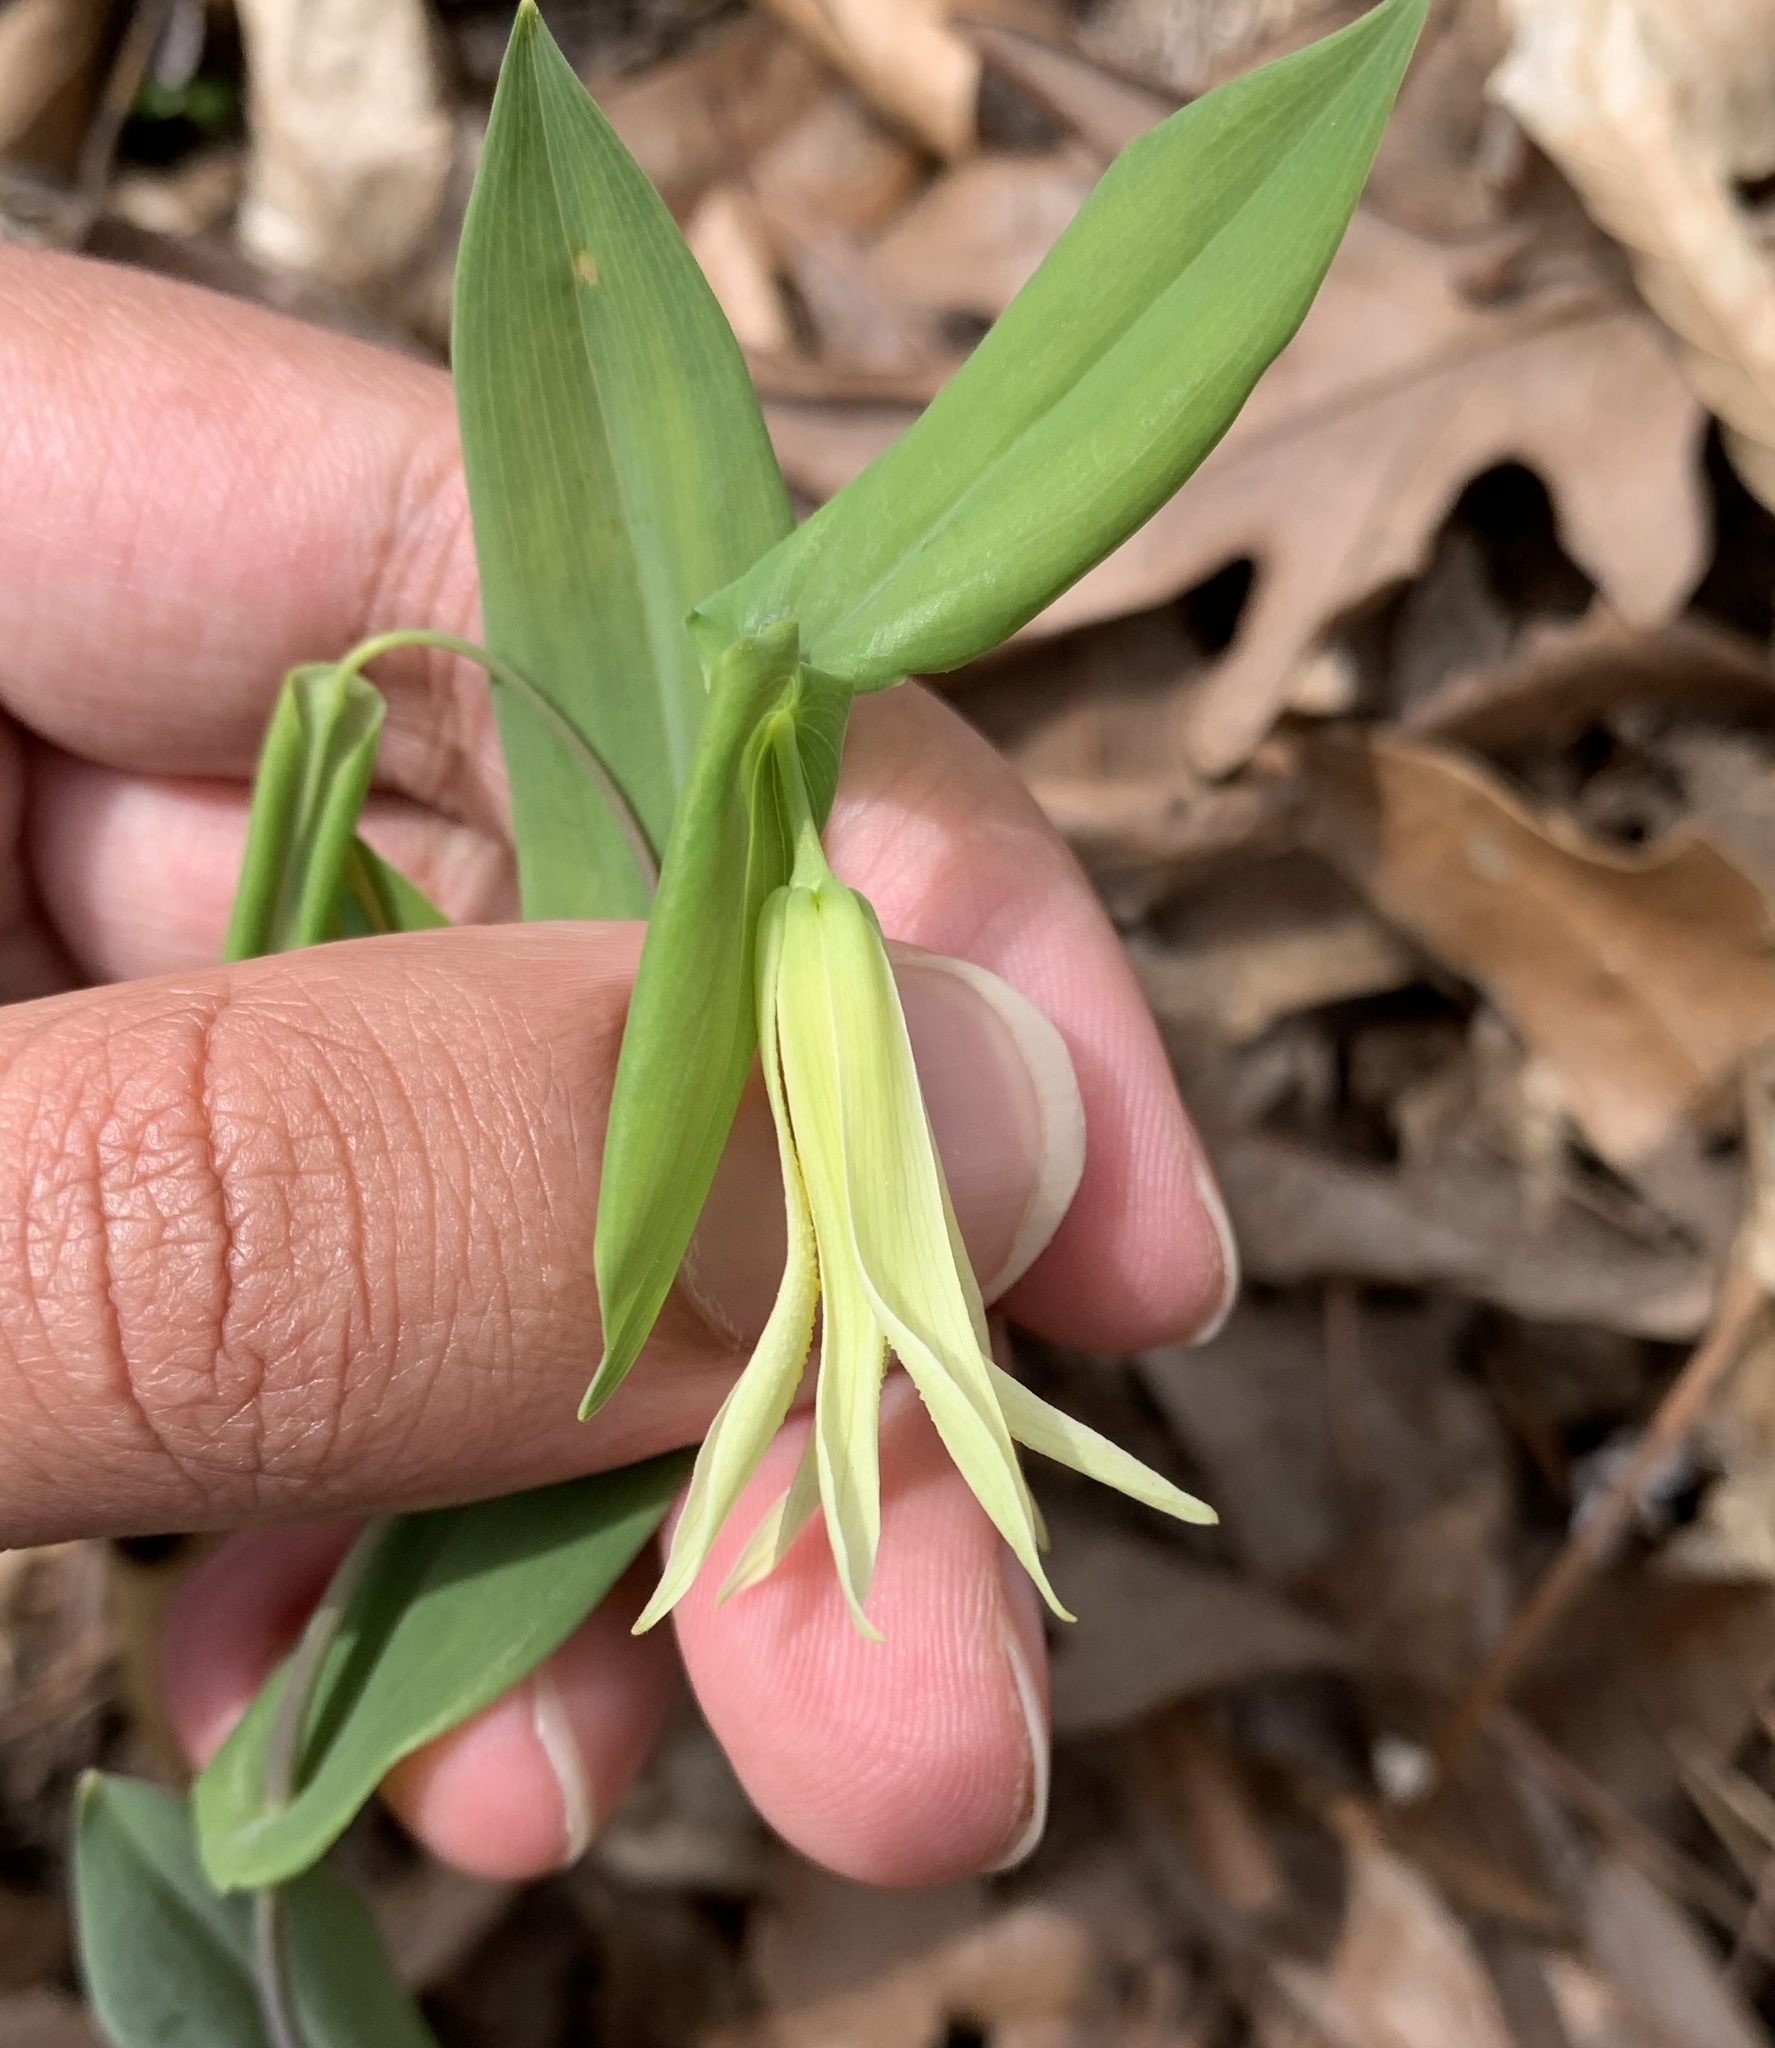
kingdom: Plantae
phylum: Tracheophyta
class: Liliopsida
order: Liliales
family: Colchicaceae
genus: Uvularia
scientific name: Uvularia perfoliata
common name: Perfoliate bellwort
